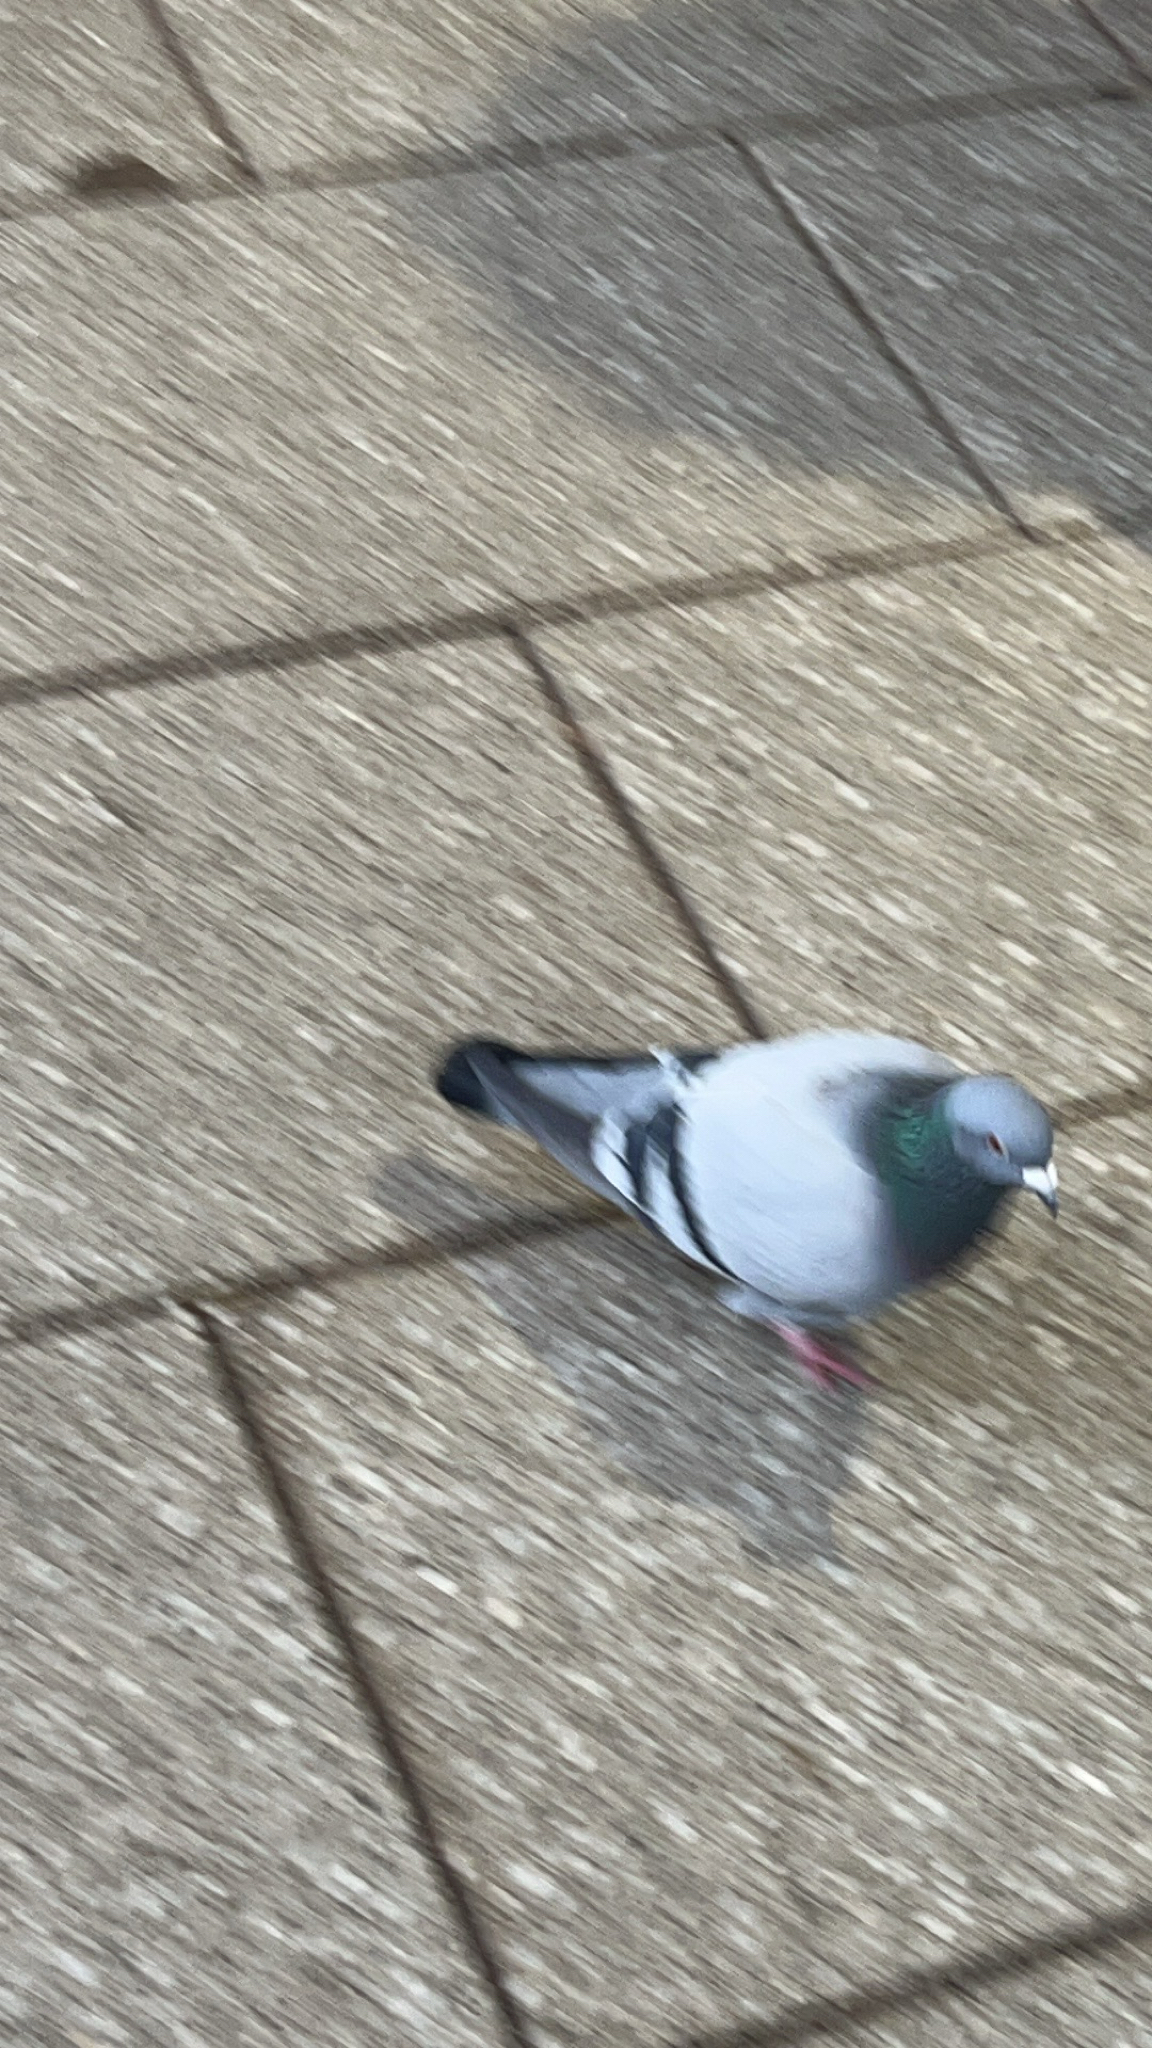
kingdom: Animalia
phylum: Chordata
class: Aves
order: Columbiformes
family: Columbidae
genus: Columba
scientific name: Columba livia
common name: Rock pigeon
